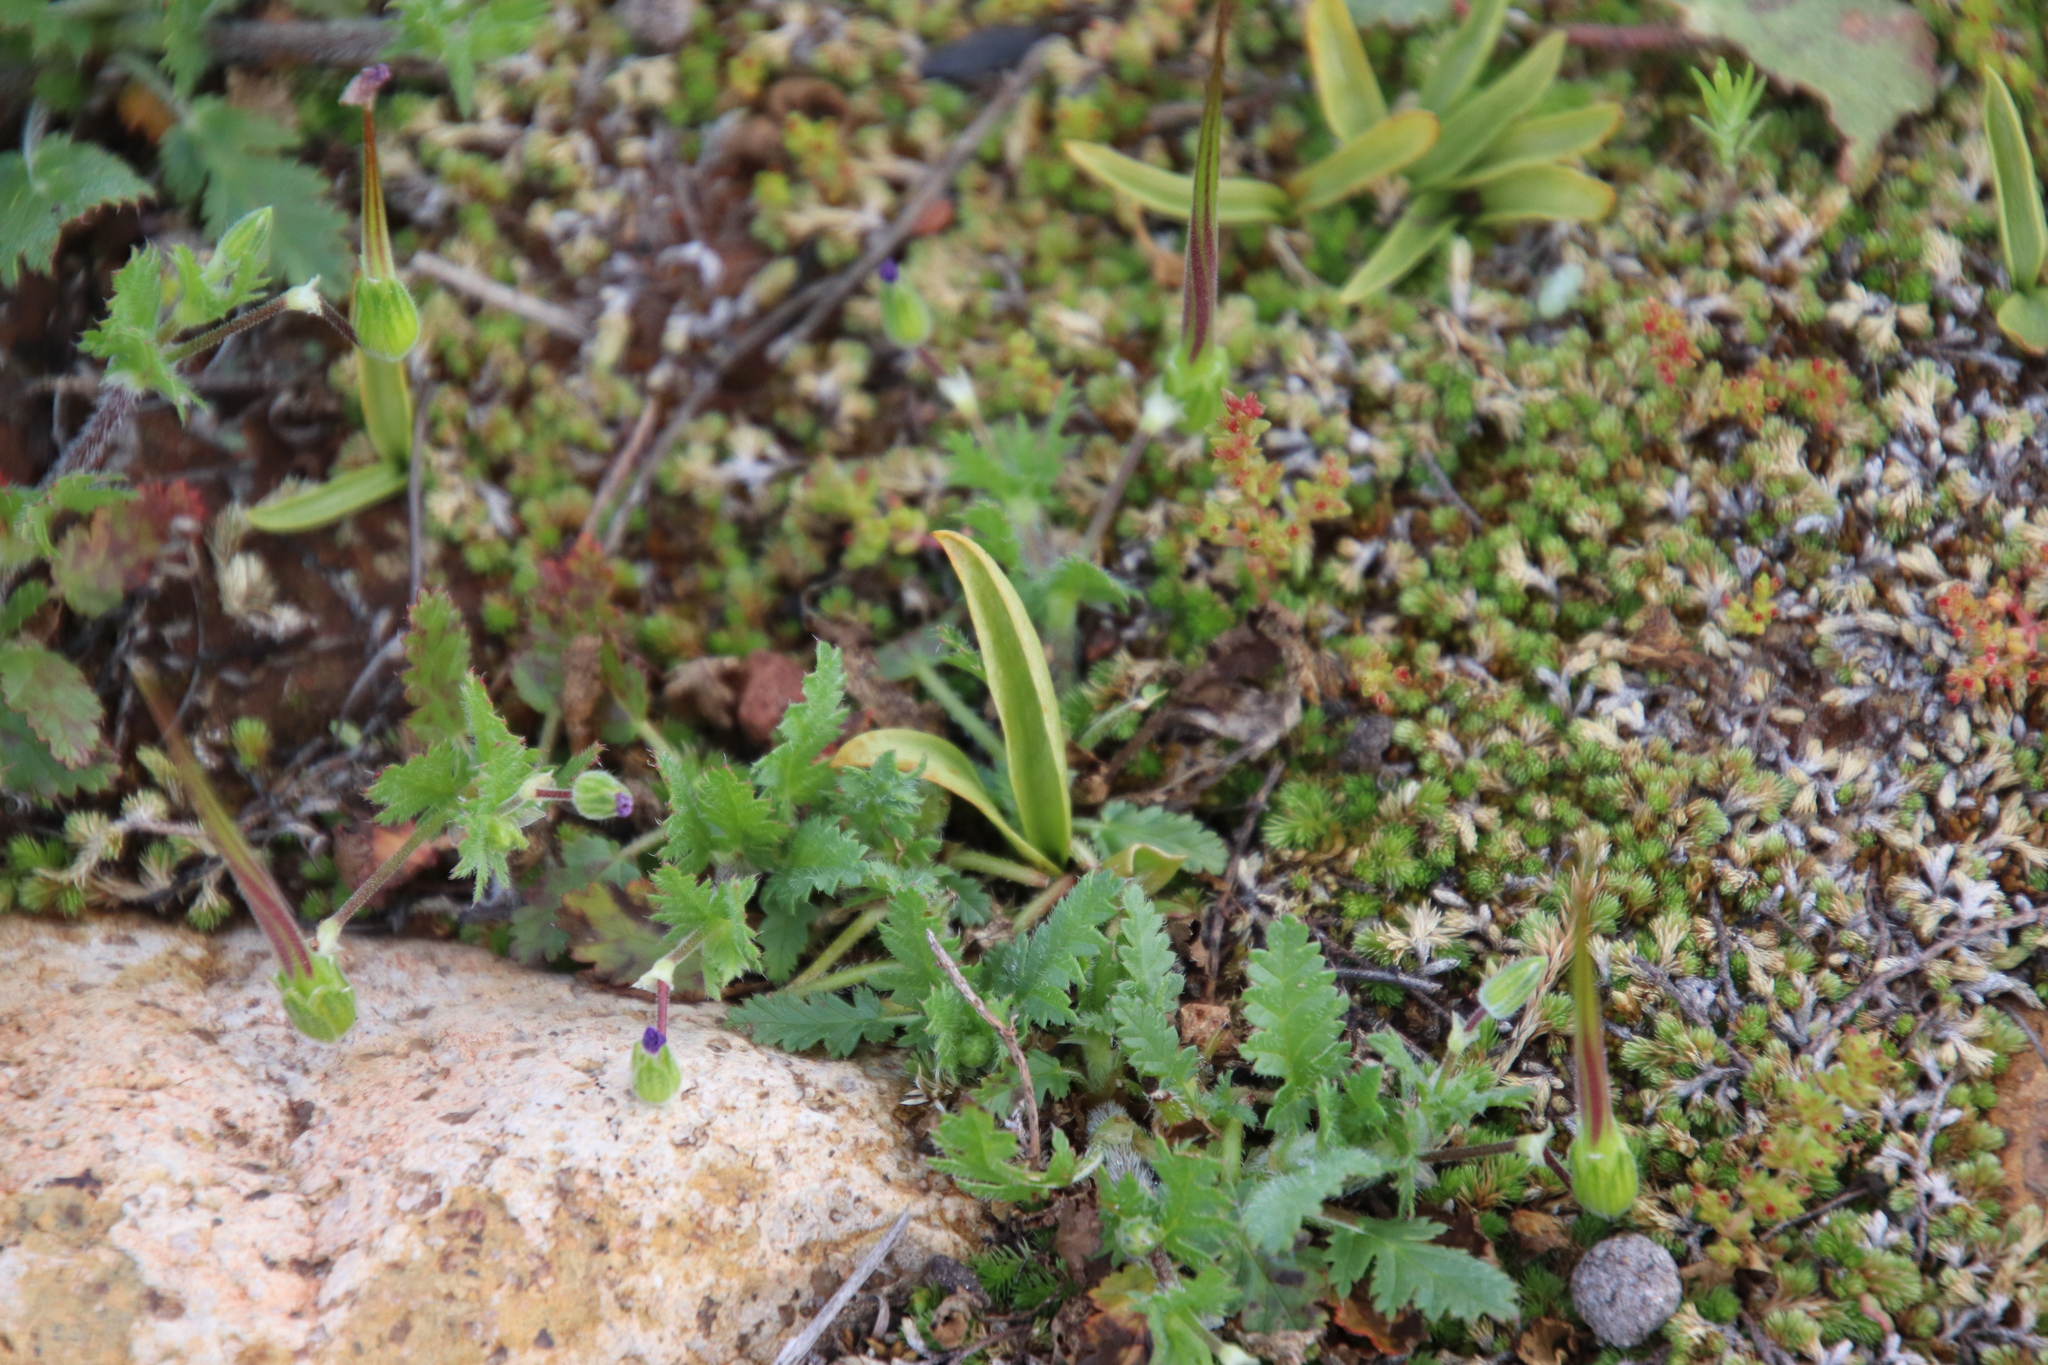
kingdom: Plantae
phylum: Tracheophyta
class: Polypodiopsida
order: Ophioglossales
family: Ophioglossaceae
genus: Ophioglossum
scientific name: Ophioglossum californicum
